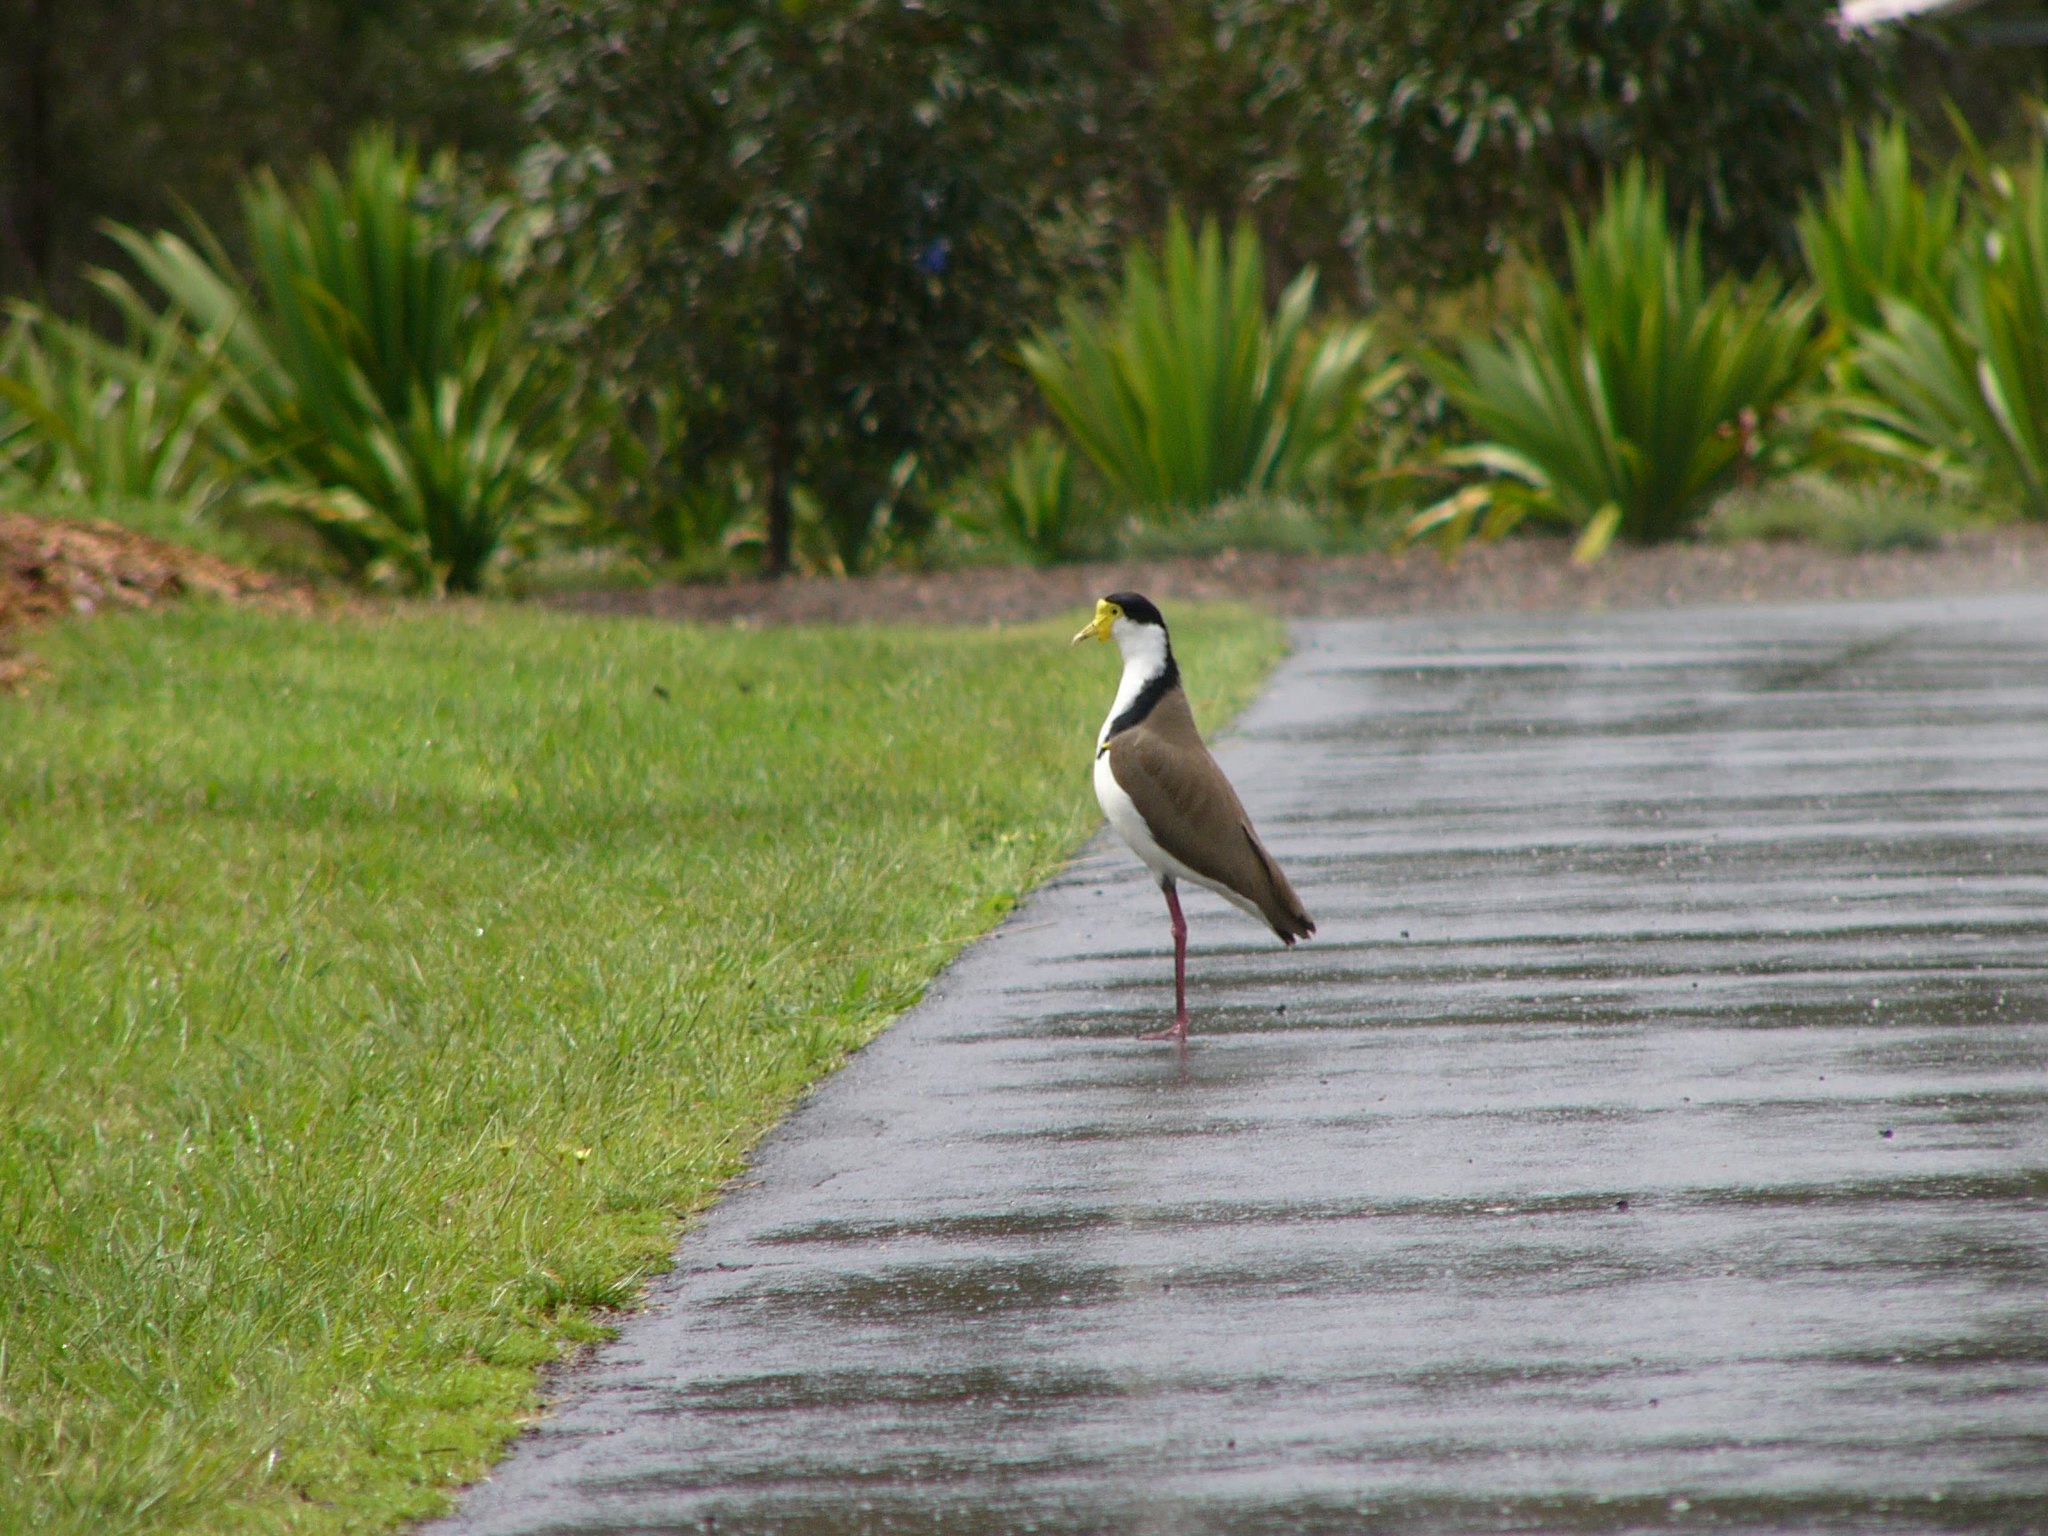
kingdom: Animalia
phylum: Chordata
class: Aves
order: Charadriiformes
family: Charadriidae
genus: Vanellus
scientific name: Vanellus miles
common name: Masked lapwing
